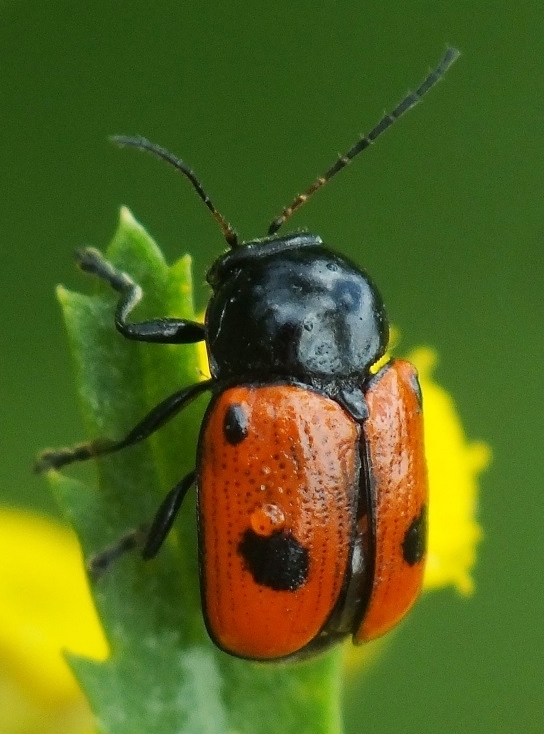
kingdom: Animalia
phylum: Arthropoda
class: Insecta
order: Coleoptera
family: Chrysomelidae
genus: Chiridopsis
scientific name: Chiridopsis bipunctata
